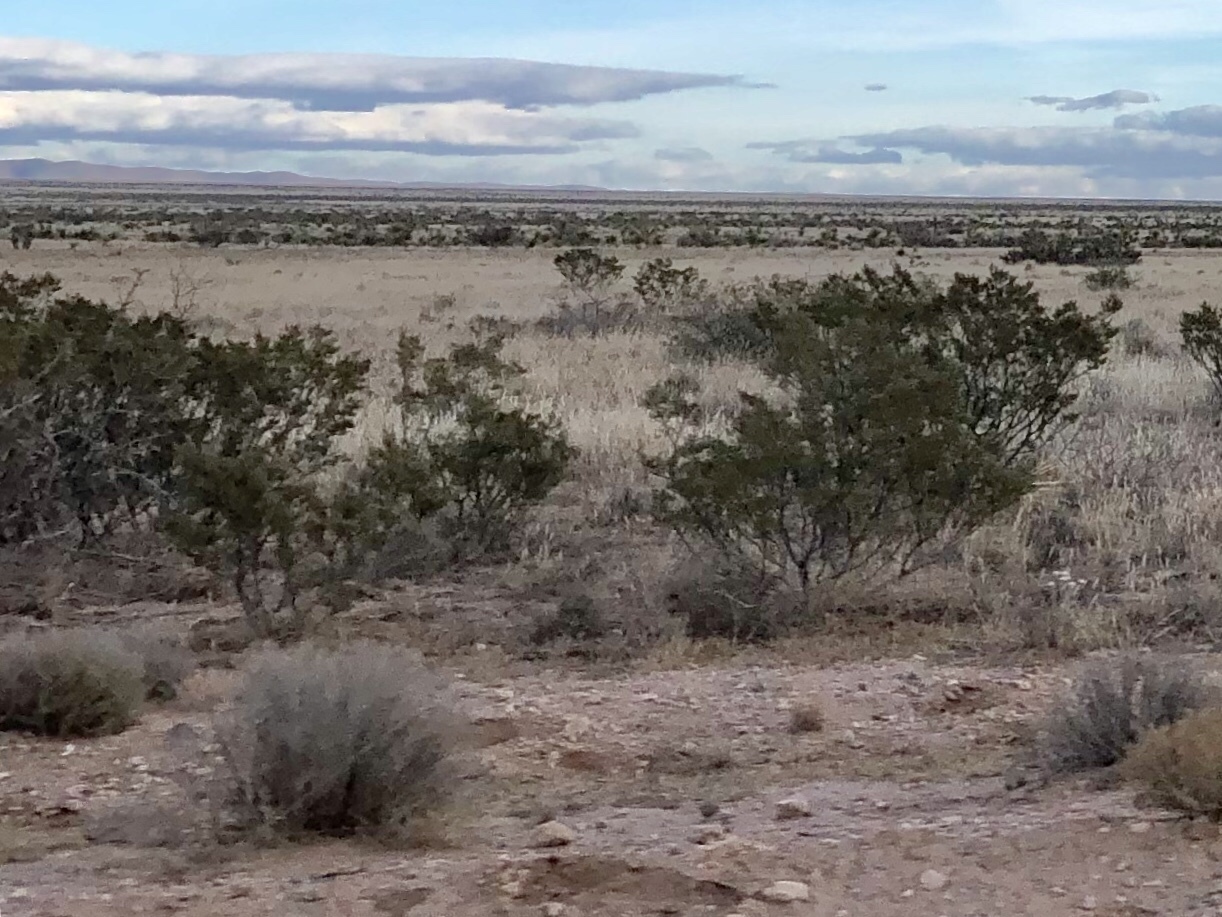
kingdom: Plantae
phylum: Tracheophyta
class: Magnoliopsida
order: Zygophyllales
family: Zygophyllaceae
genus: Larrea
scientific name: Larrea tridentata
